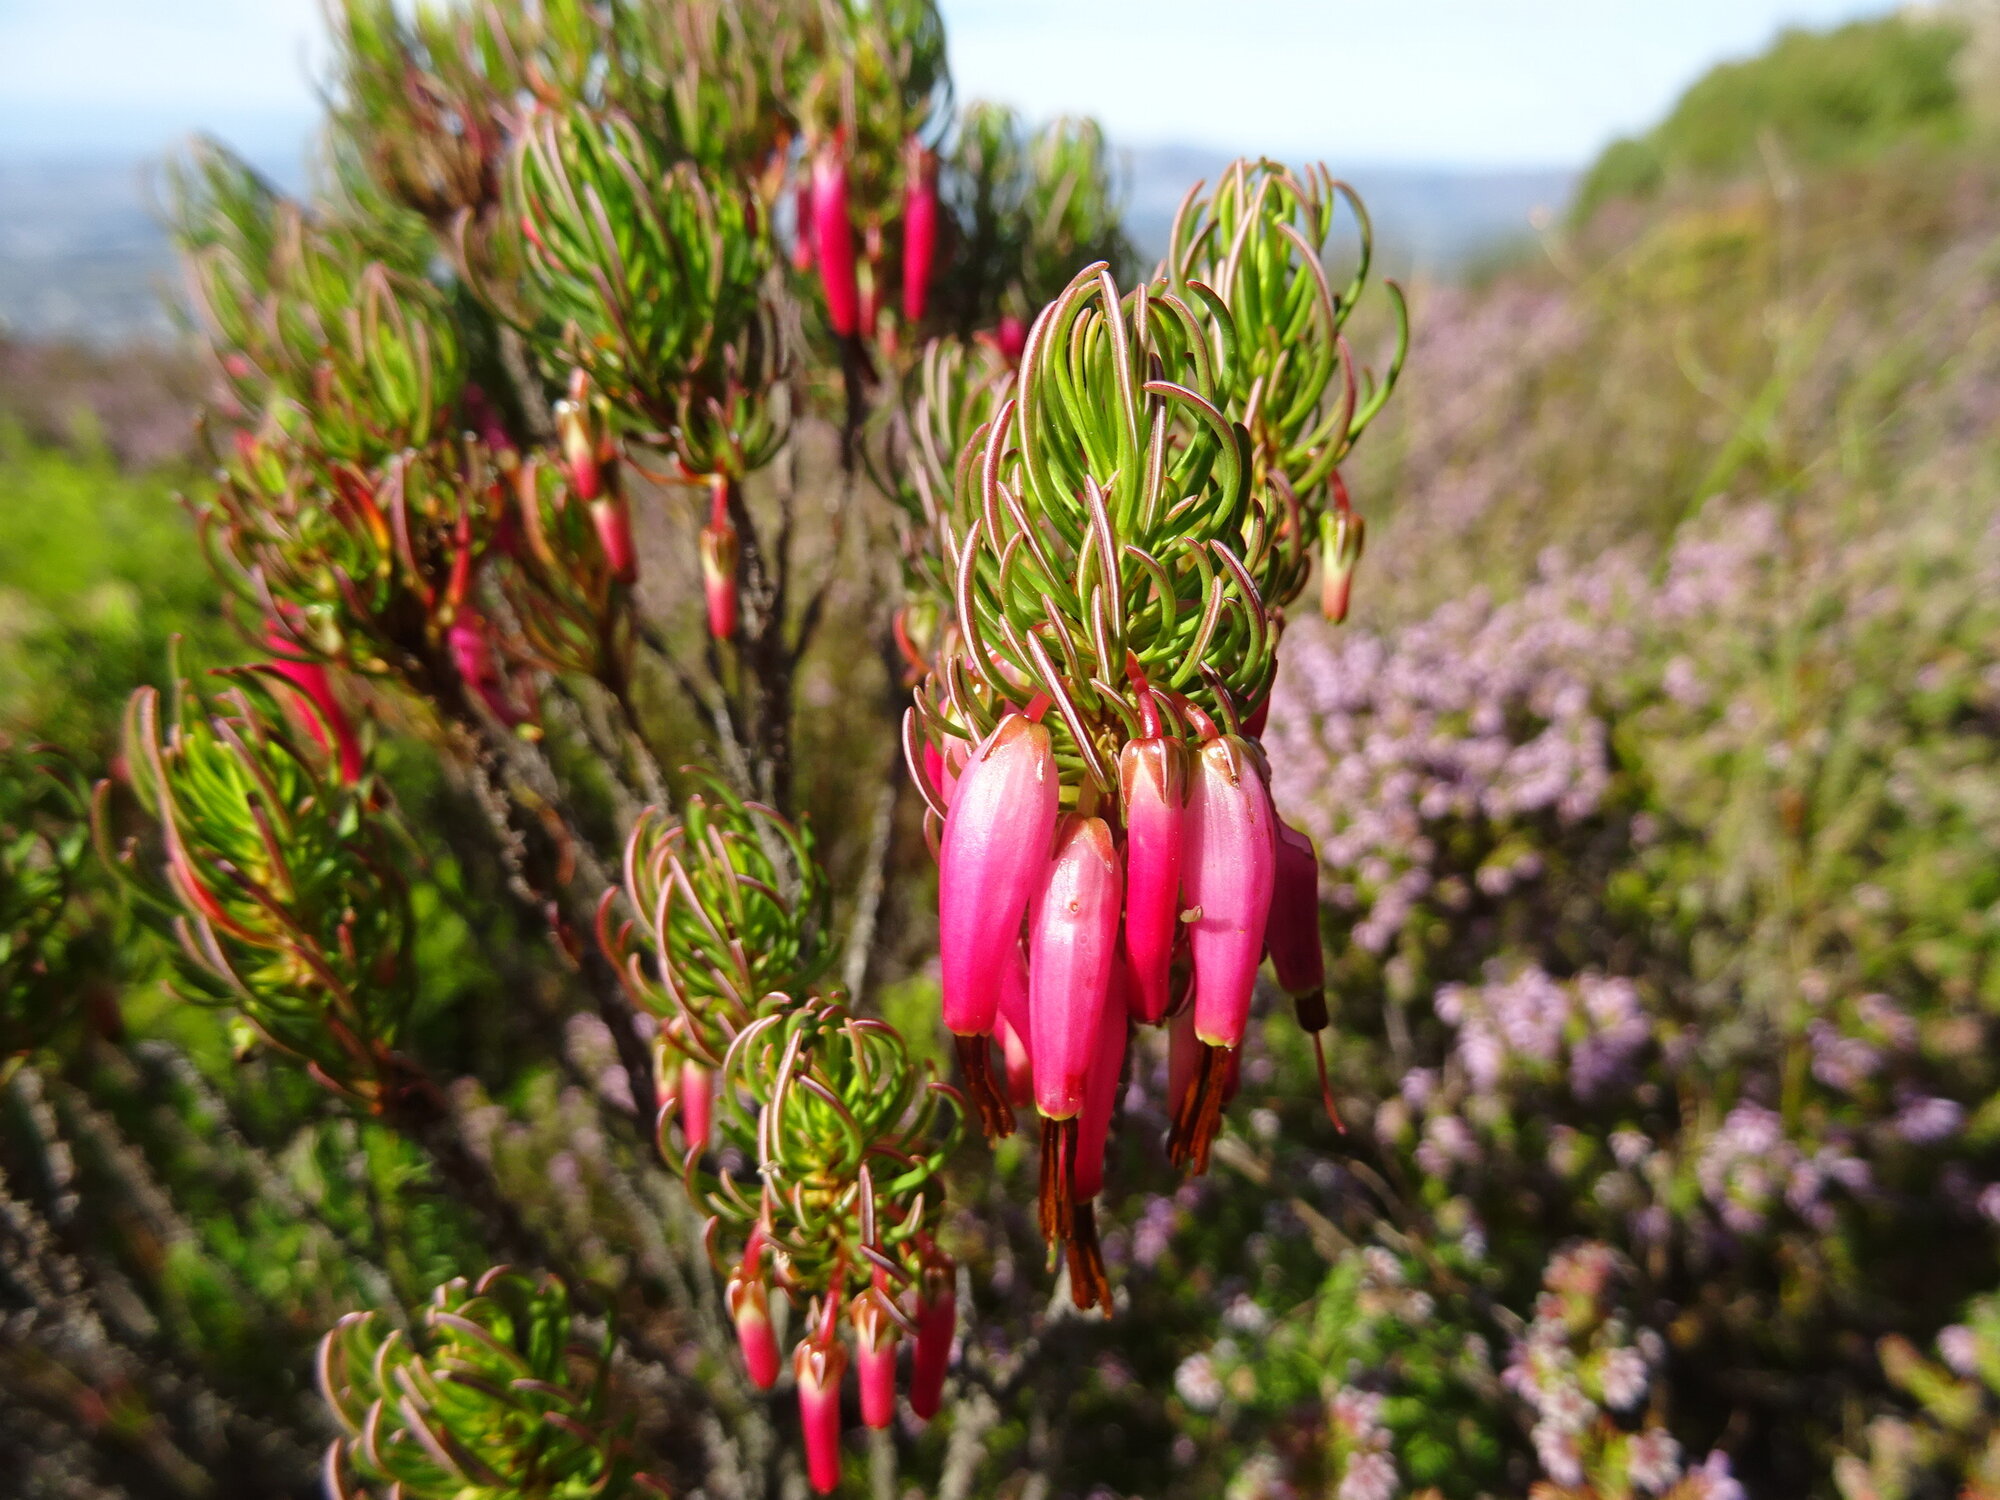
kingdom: Plantae
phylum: Tracheophyta
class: Magnoliopsida
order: Ericales
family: Ericaceae
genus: Erica
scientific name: Erica plukenetii
